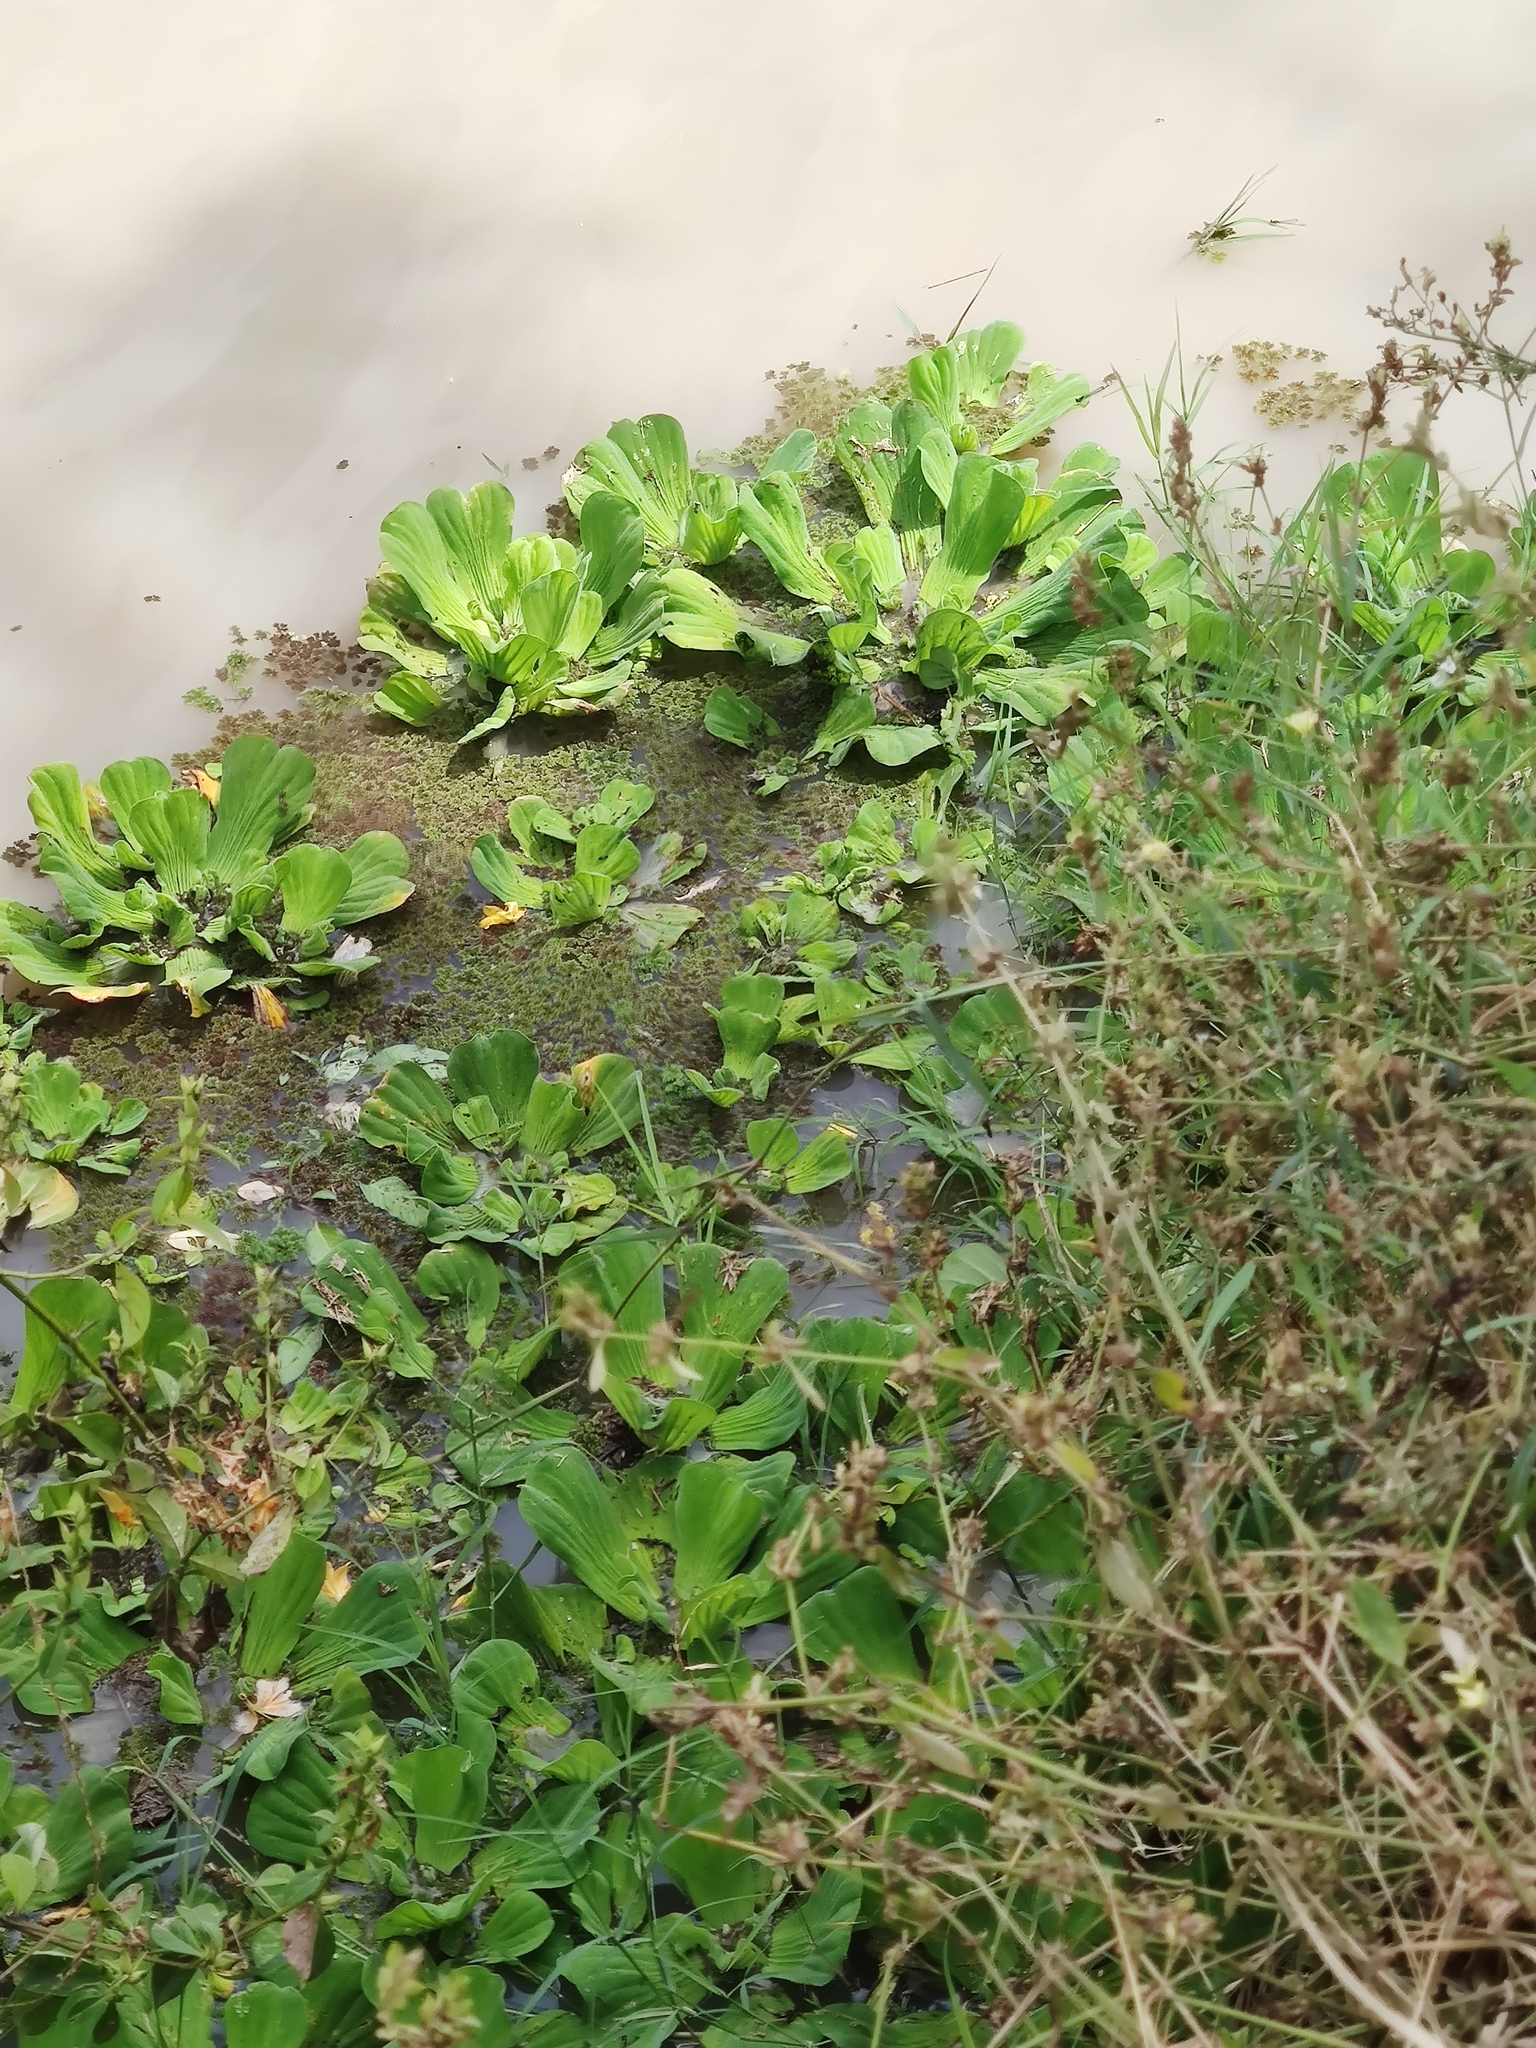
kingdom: Plantae
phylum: Tracheophyta
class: Liliopsida
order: Alismatales
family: Araceae
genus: Pistia
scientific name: Pistia stratiotes
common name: Water lettuce
